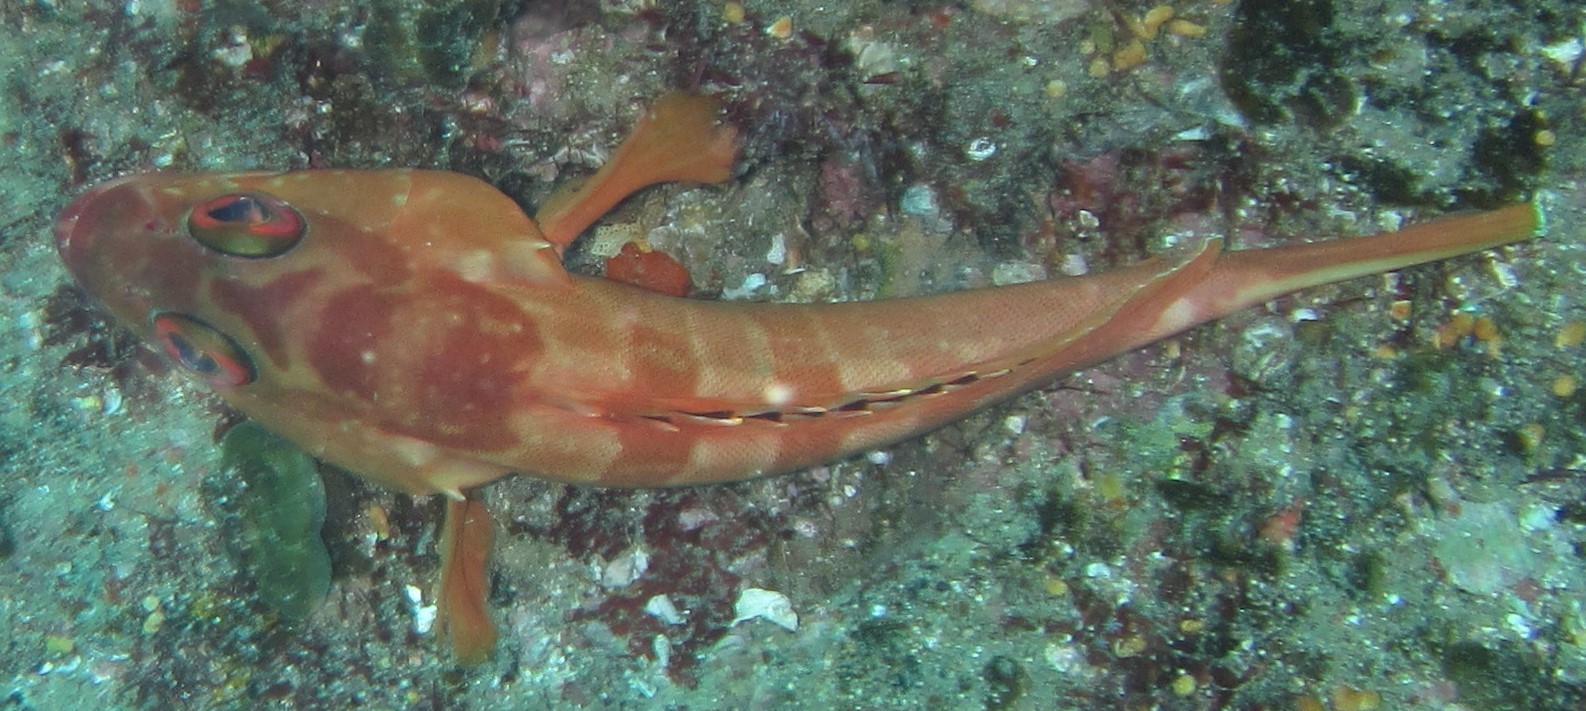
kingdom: Animalia
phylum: Chordata
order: Perciformes
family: Serranidae
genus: Epinephelus
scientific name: Epinephelus fasciatus
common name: Blacktip grouper
